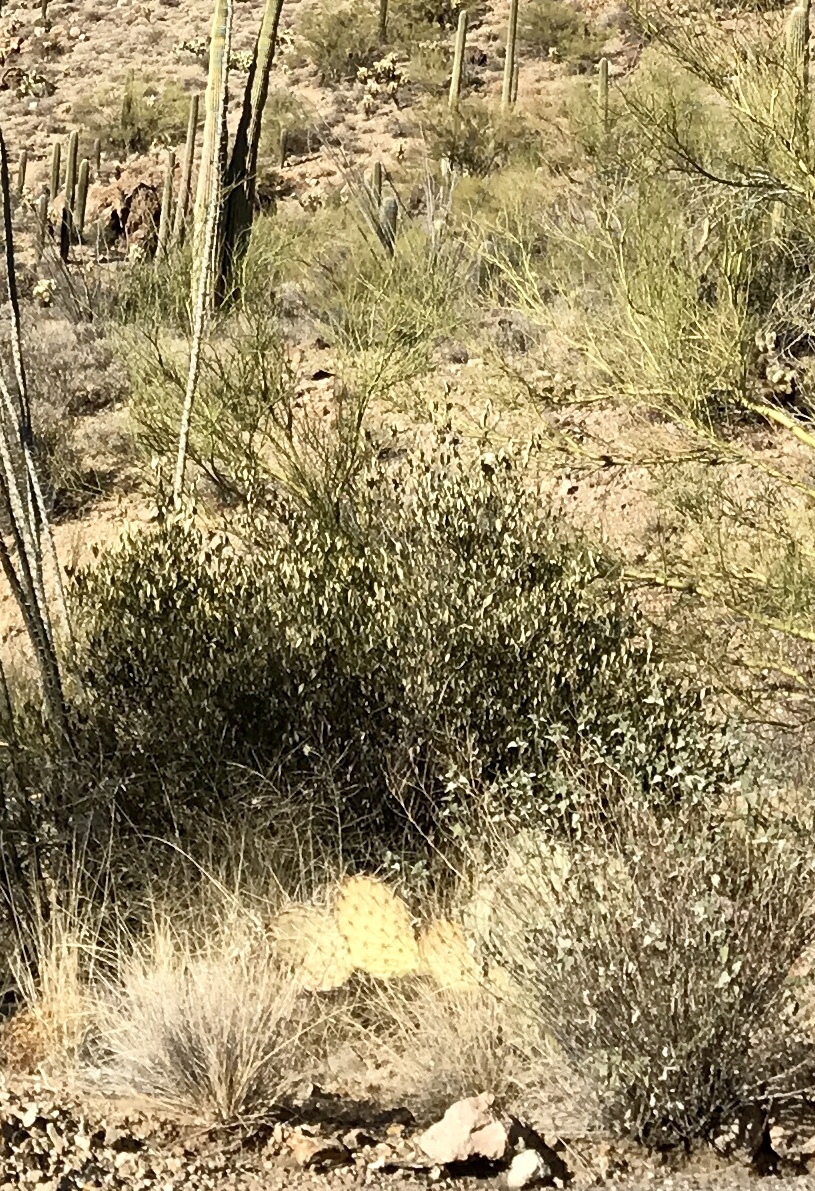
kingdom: Plantae
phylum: Tracheophyta
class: Magnoliopsida
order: Caryophyllales
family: Simmondsiaceae
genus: Simmondsia
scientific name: Simmondsia chinensis
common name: Jojoba
